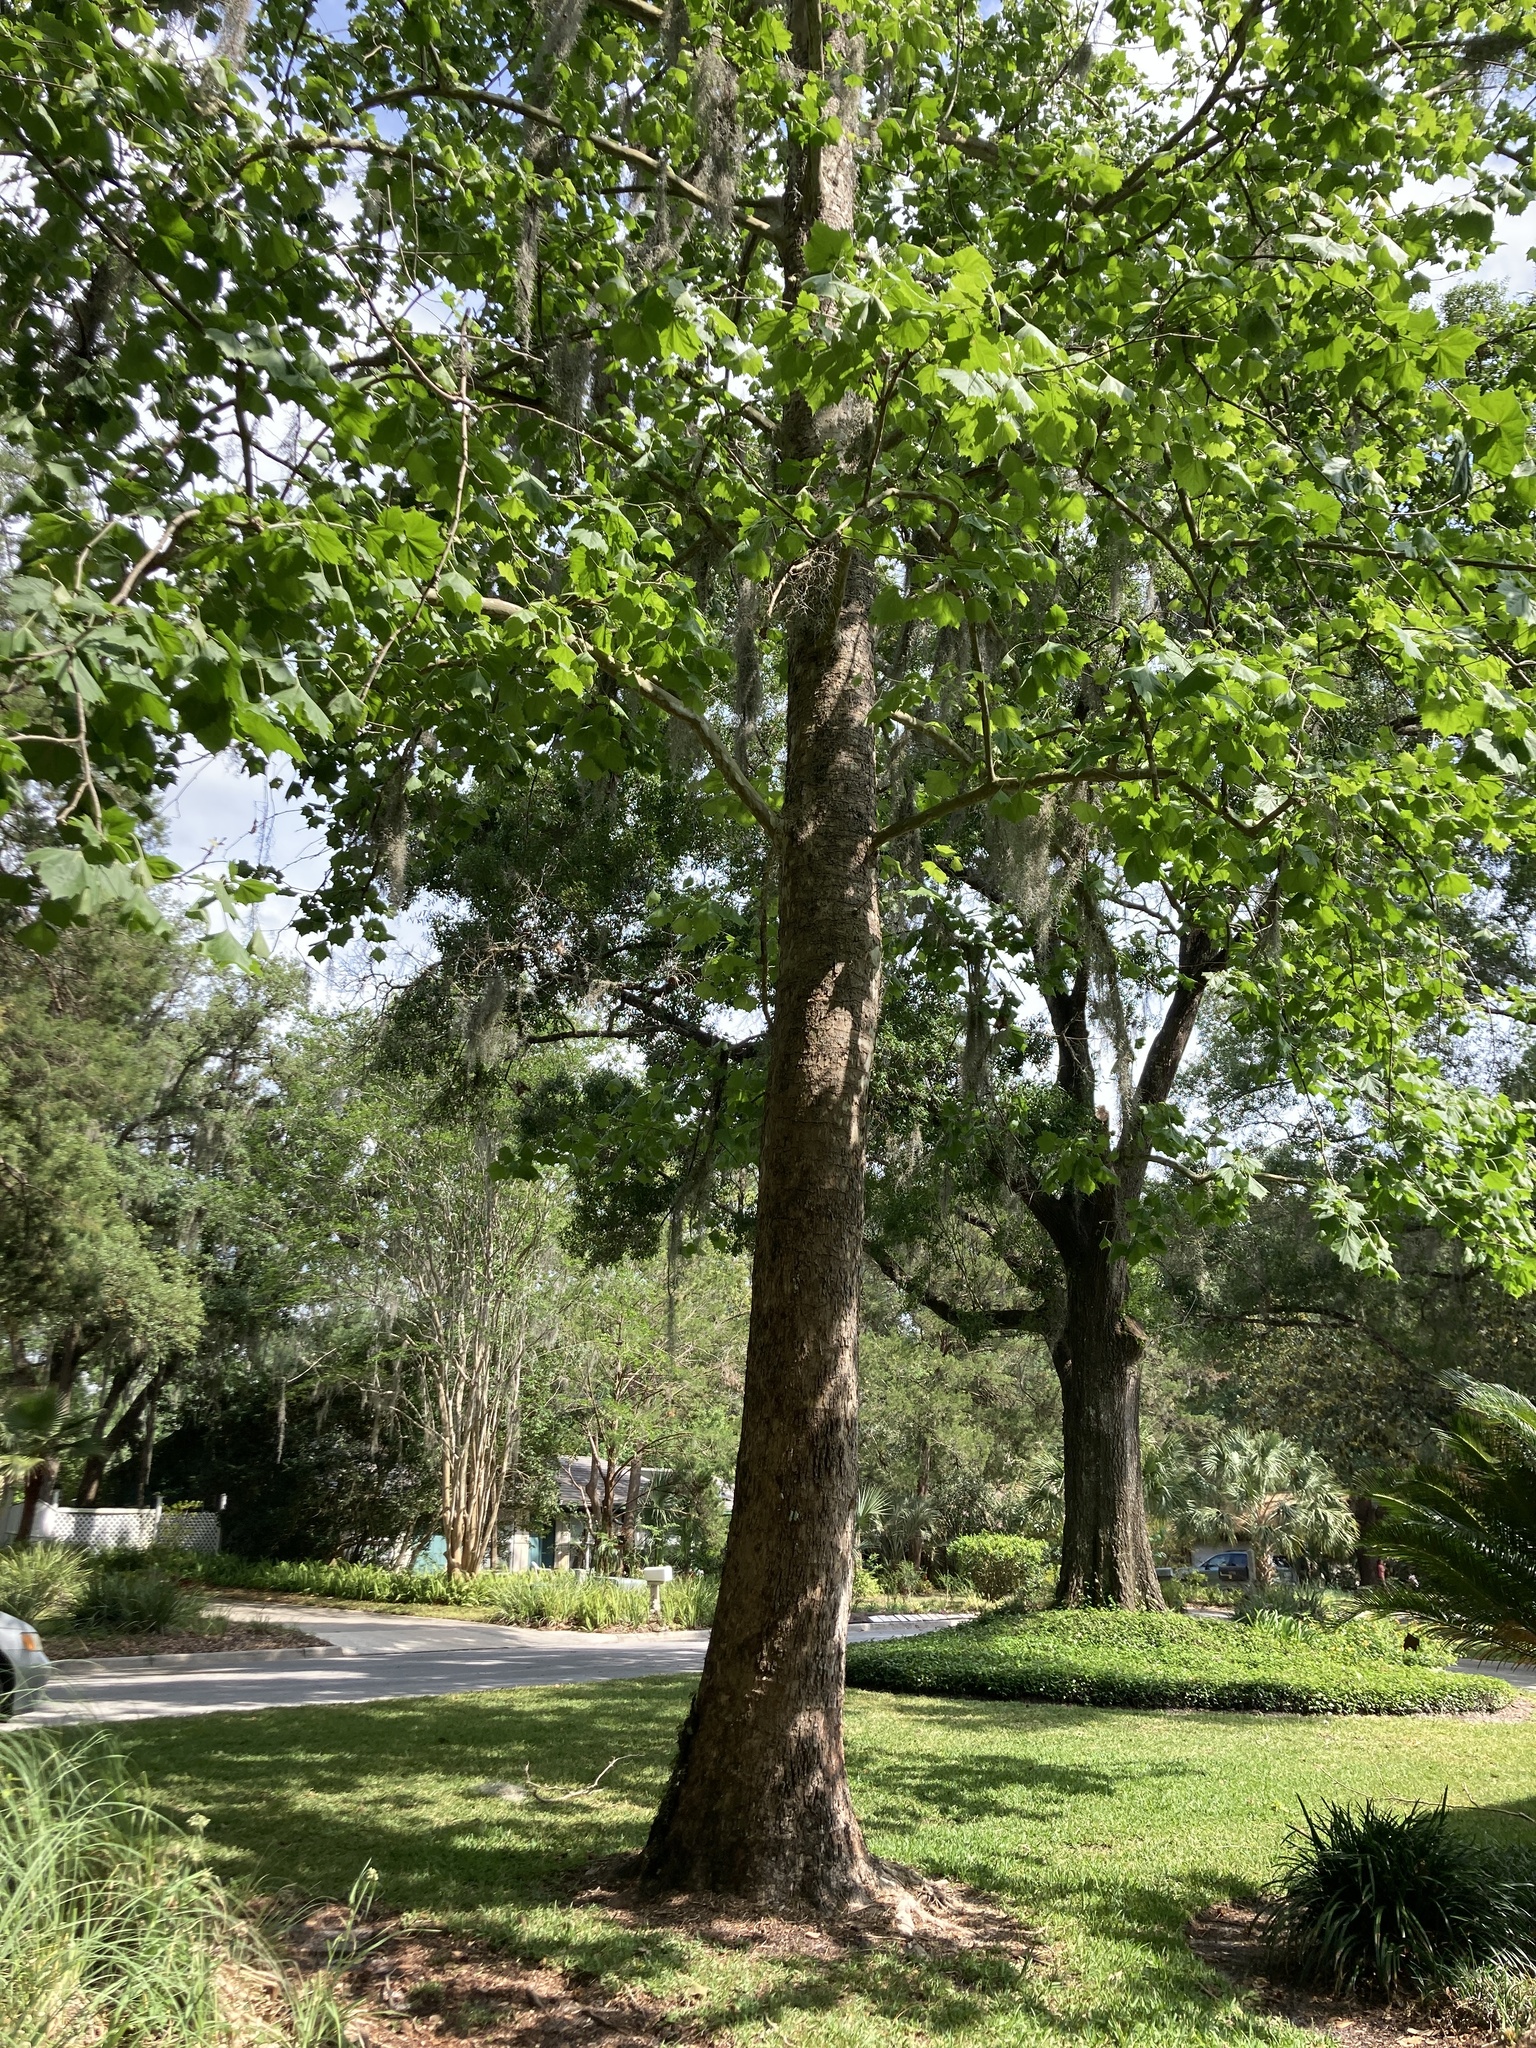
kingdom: Plantae
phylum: Tracheophyta
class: Magnoliopsida
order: Proteales
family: Platanaceae
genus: Platanus
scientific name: Platanus occidentalis
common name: American sycamore
